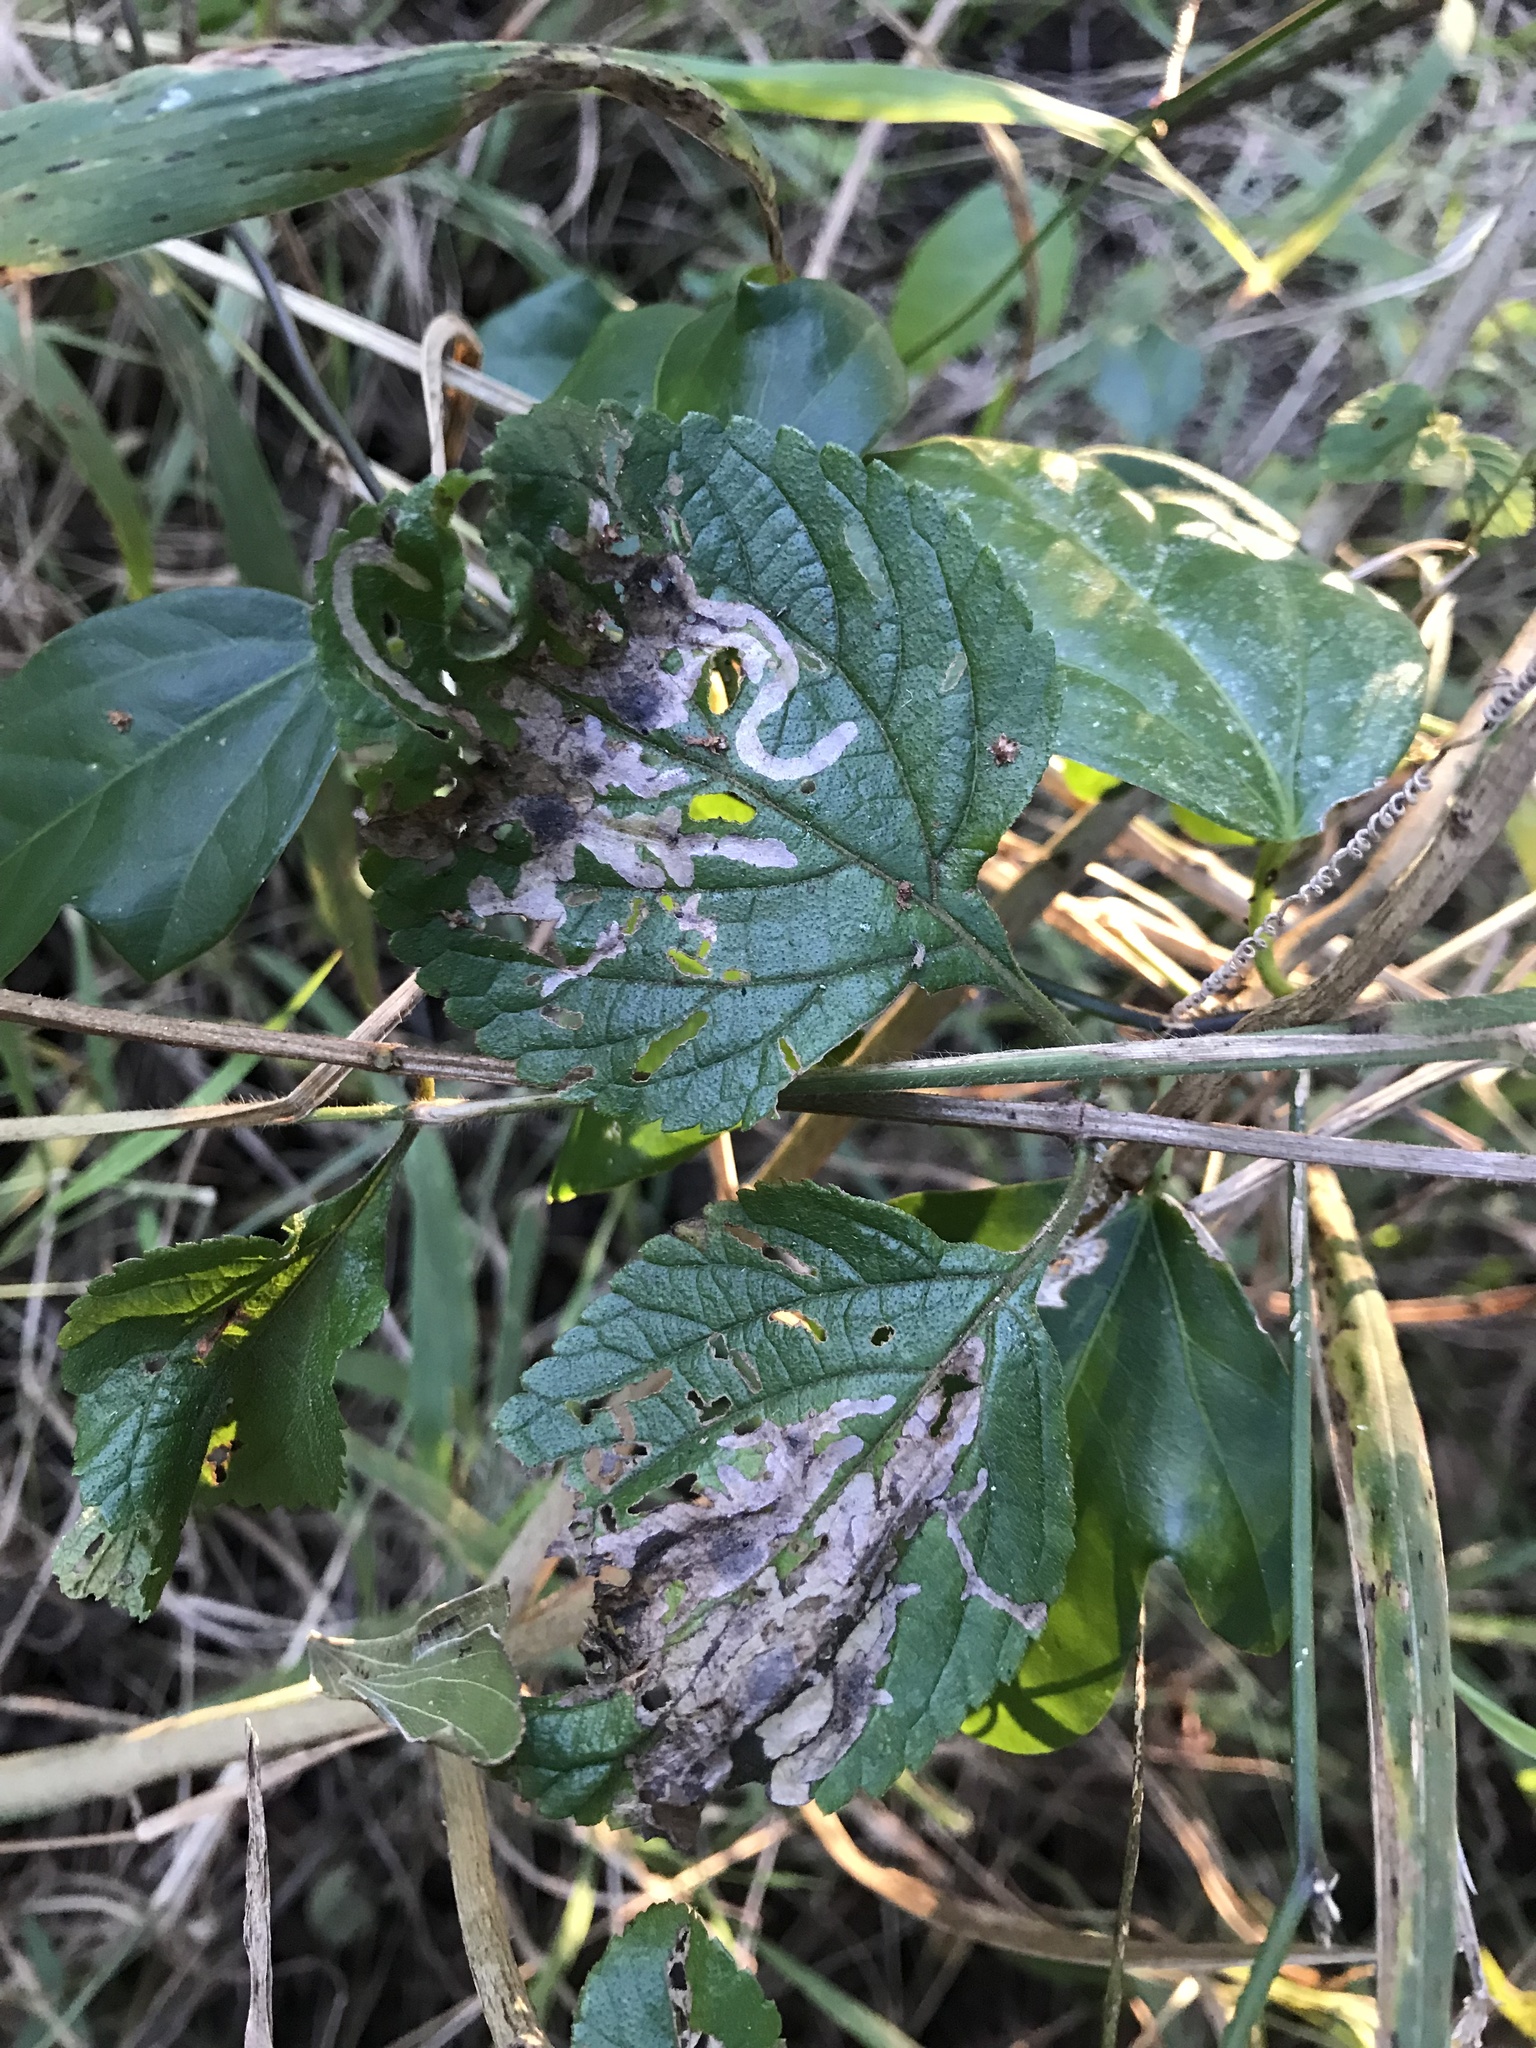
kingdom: Animalia
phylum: Arthropoda
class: Insecta
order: Coleoptera
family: Chrysomelidae
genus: Uroplata
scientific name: Uroplata girardi
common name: Lantana leafminer
